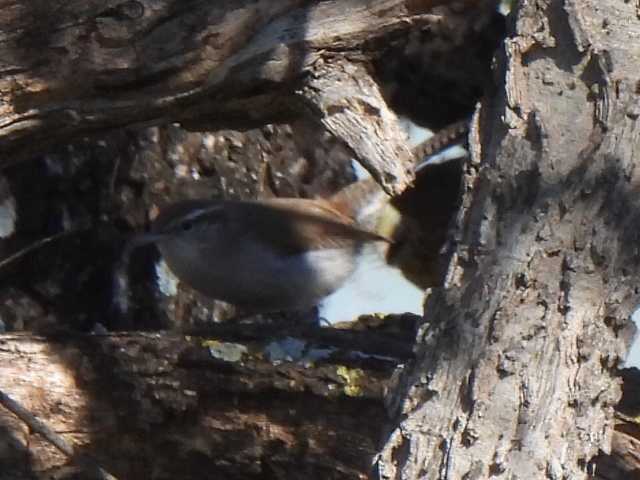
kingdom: Animalia
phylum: Chordata
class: Aves
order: Passeriformes
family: Troglodytidae
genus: Thryomanes
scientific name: Thryomanes bewickii
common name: Bewick's wren
